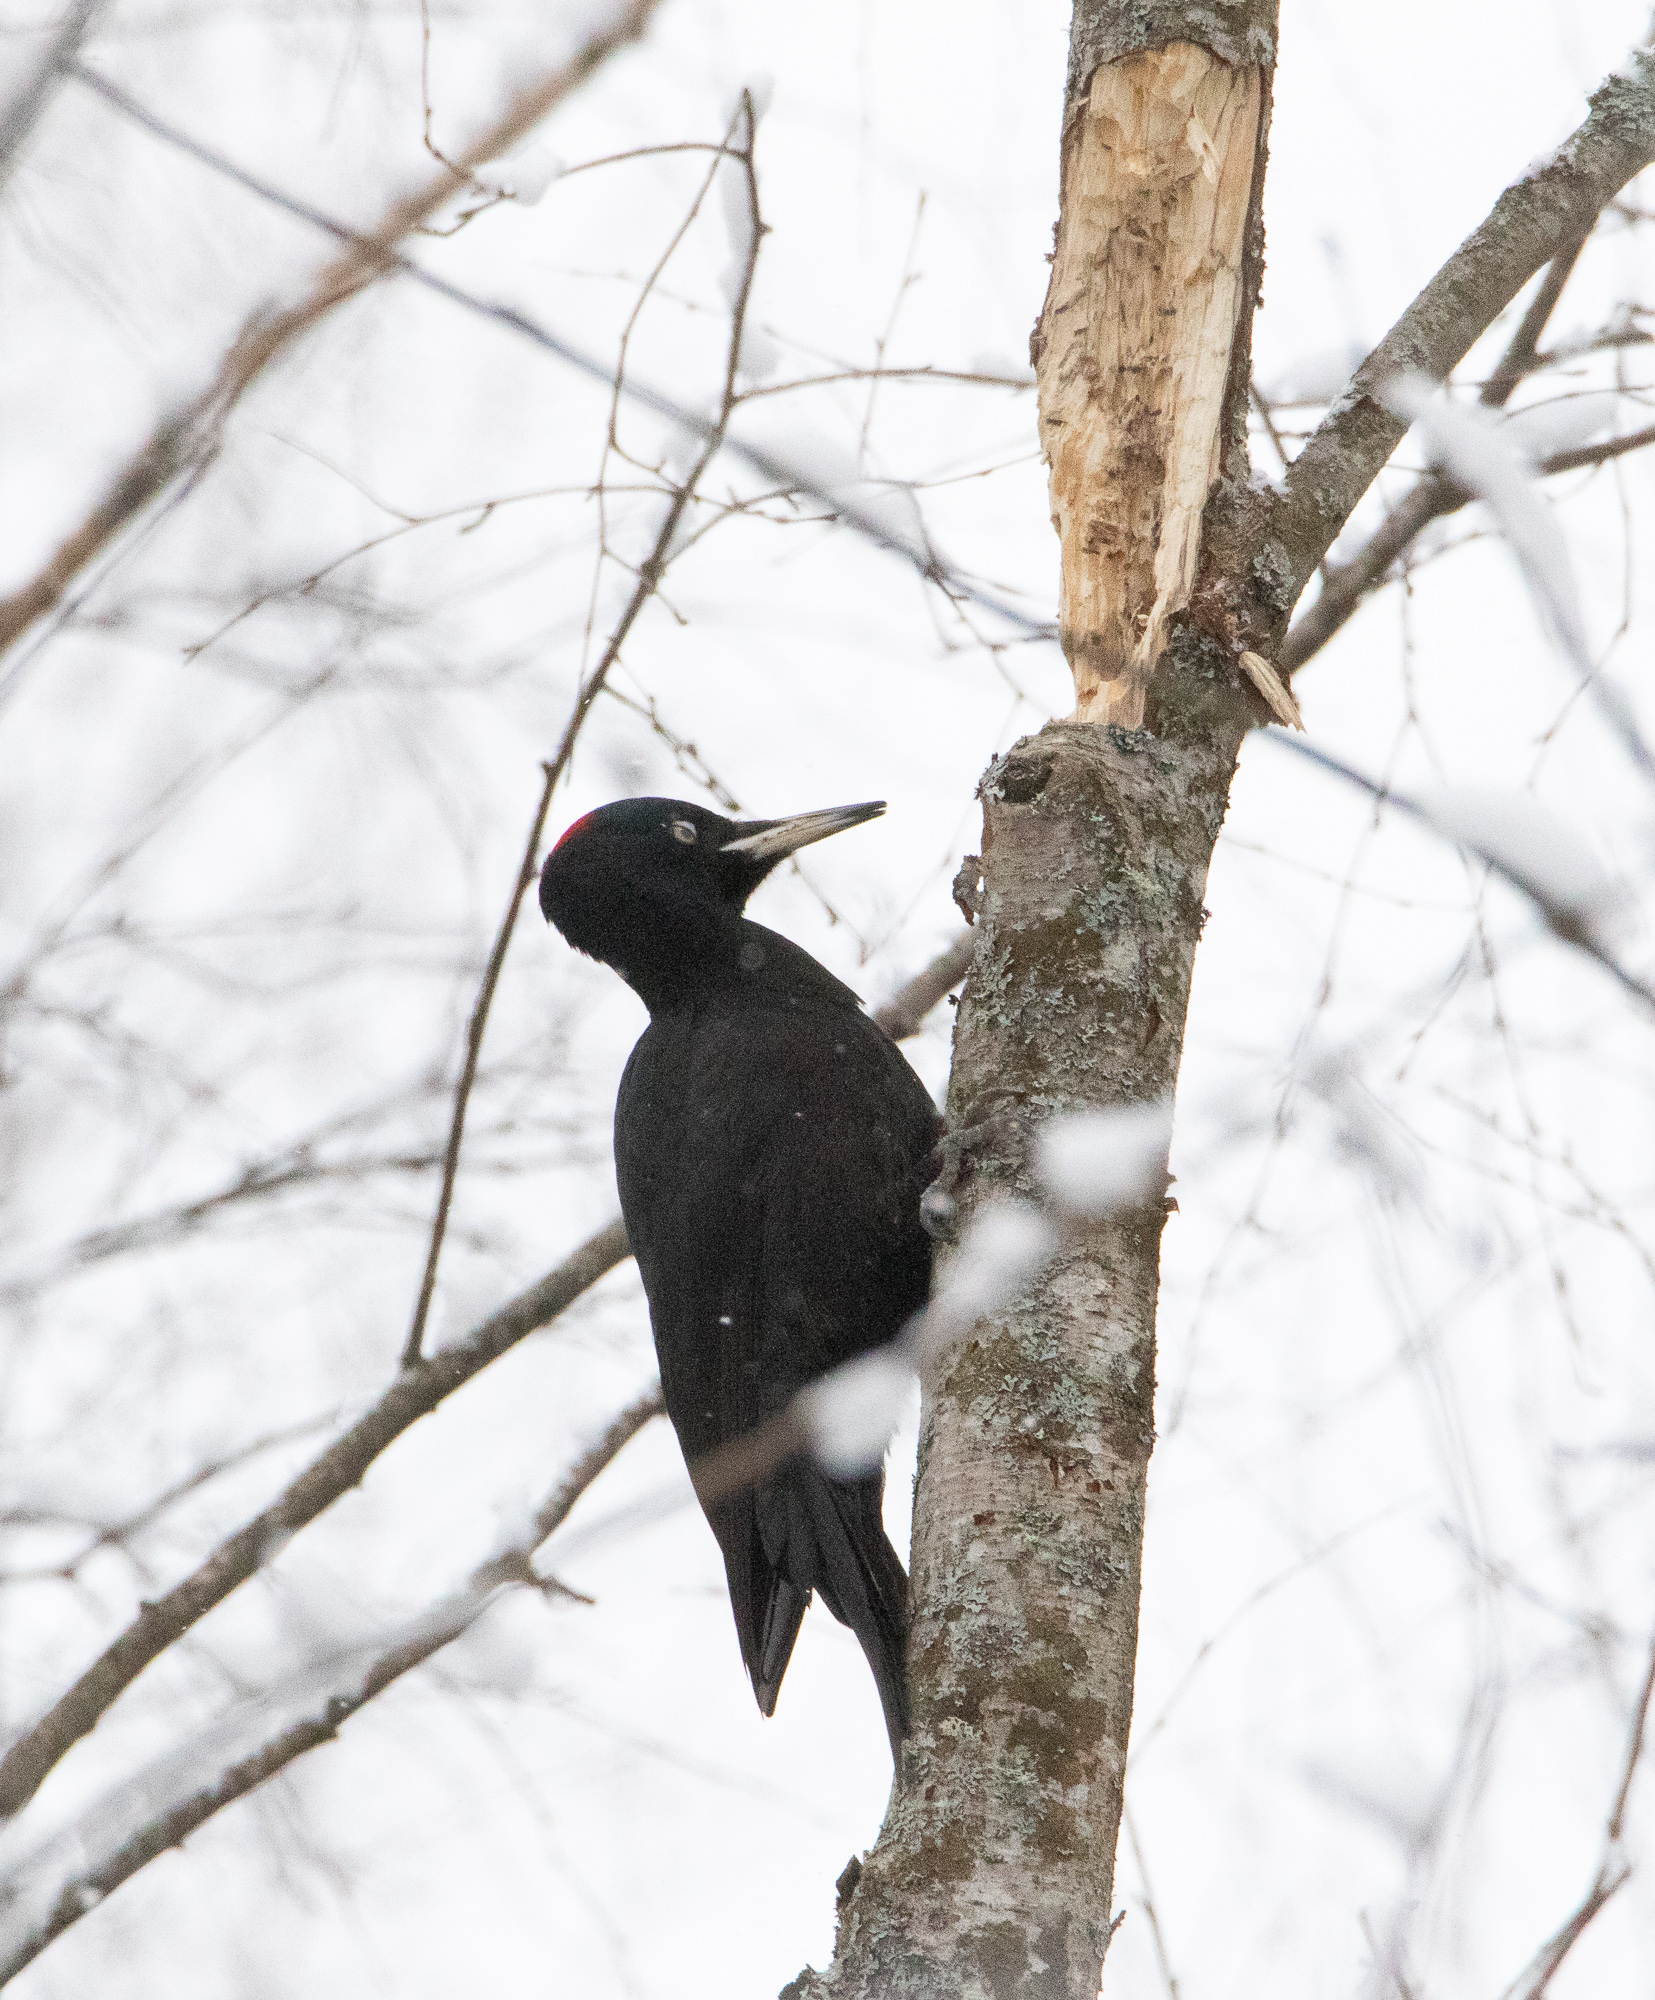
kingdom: Animalia
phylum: Chordata
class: Aves
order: Piciformes
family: Picidae
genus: Dryocopus
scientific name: Dryocopus martius
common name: Black woodpecker
